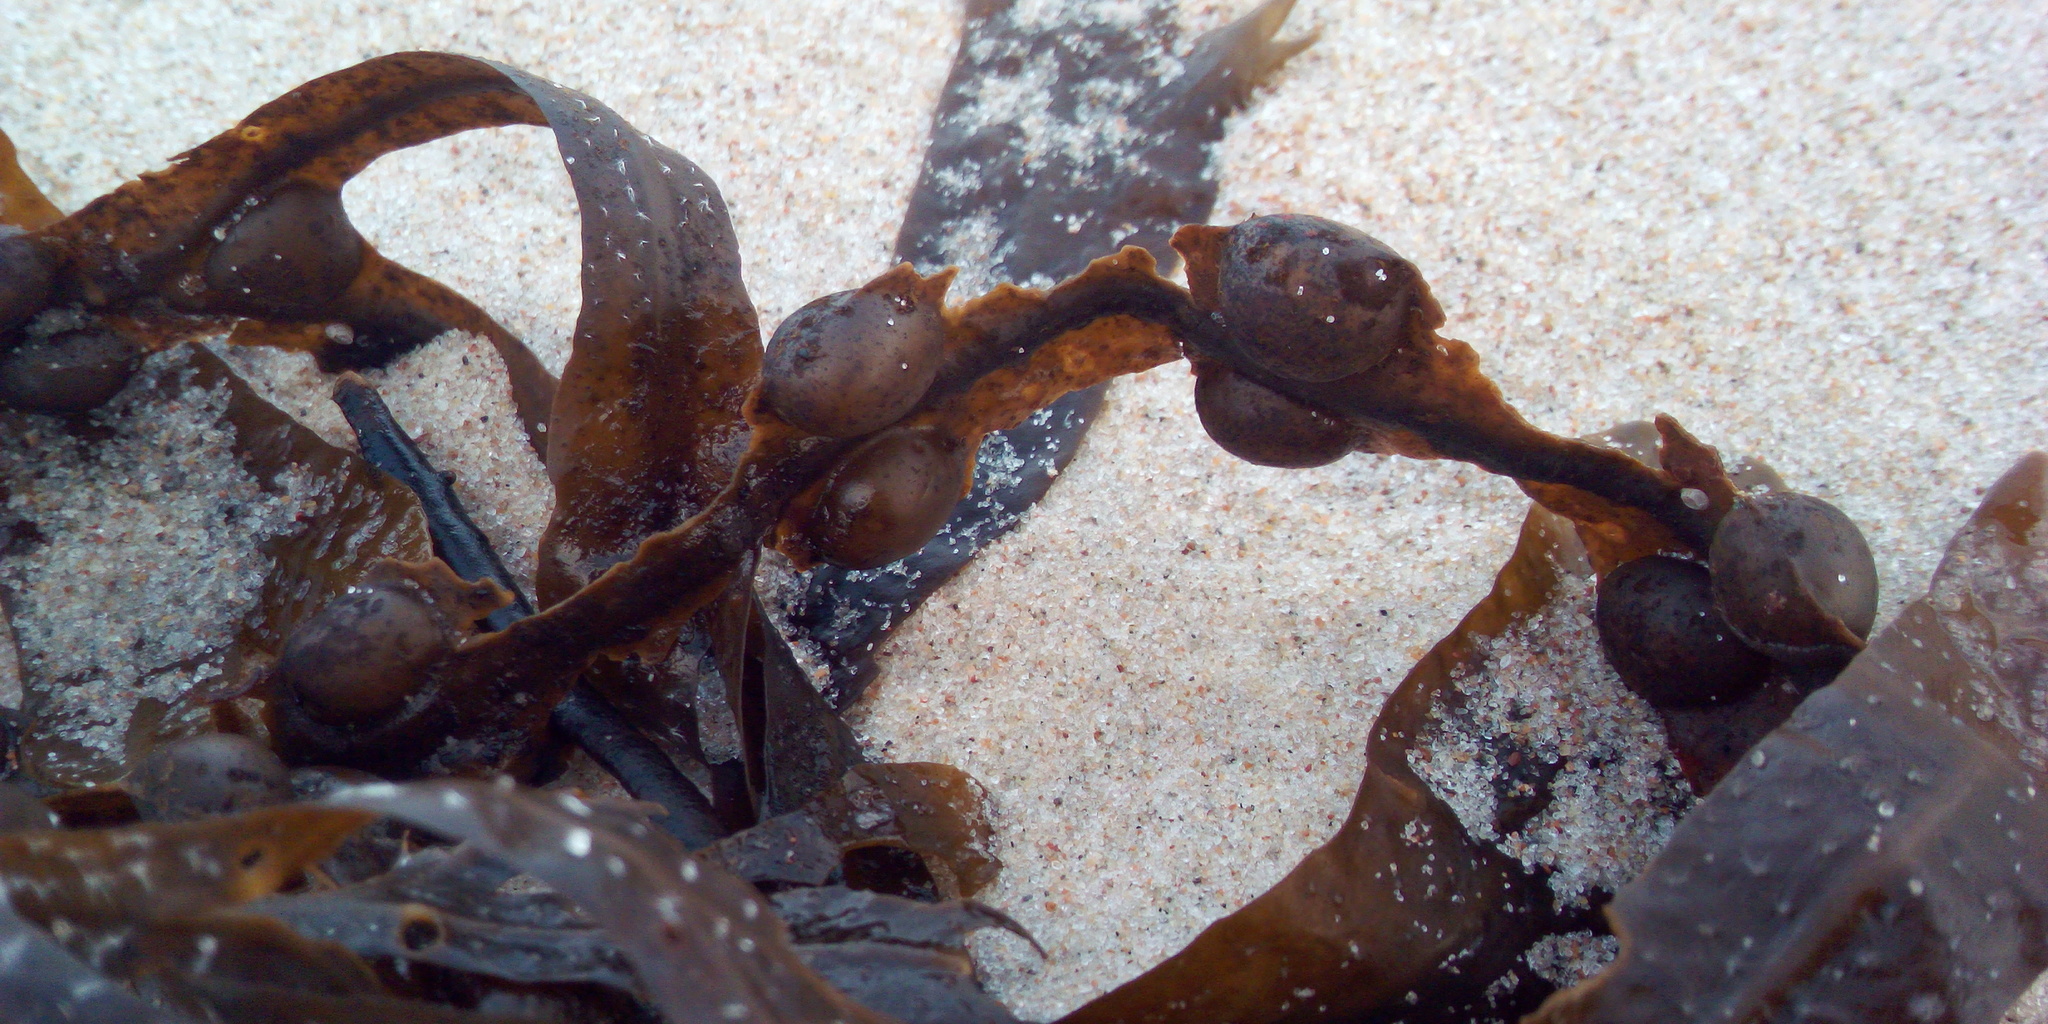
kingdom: Chromista
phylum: Ochrophyta
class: Phaeophyceae
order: Fucales
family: Fucaceae
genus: Fucus
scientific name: Fucus vesiculosus
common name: Bladder wrack
